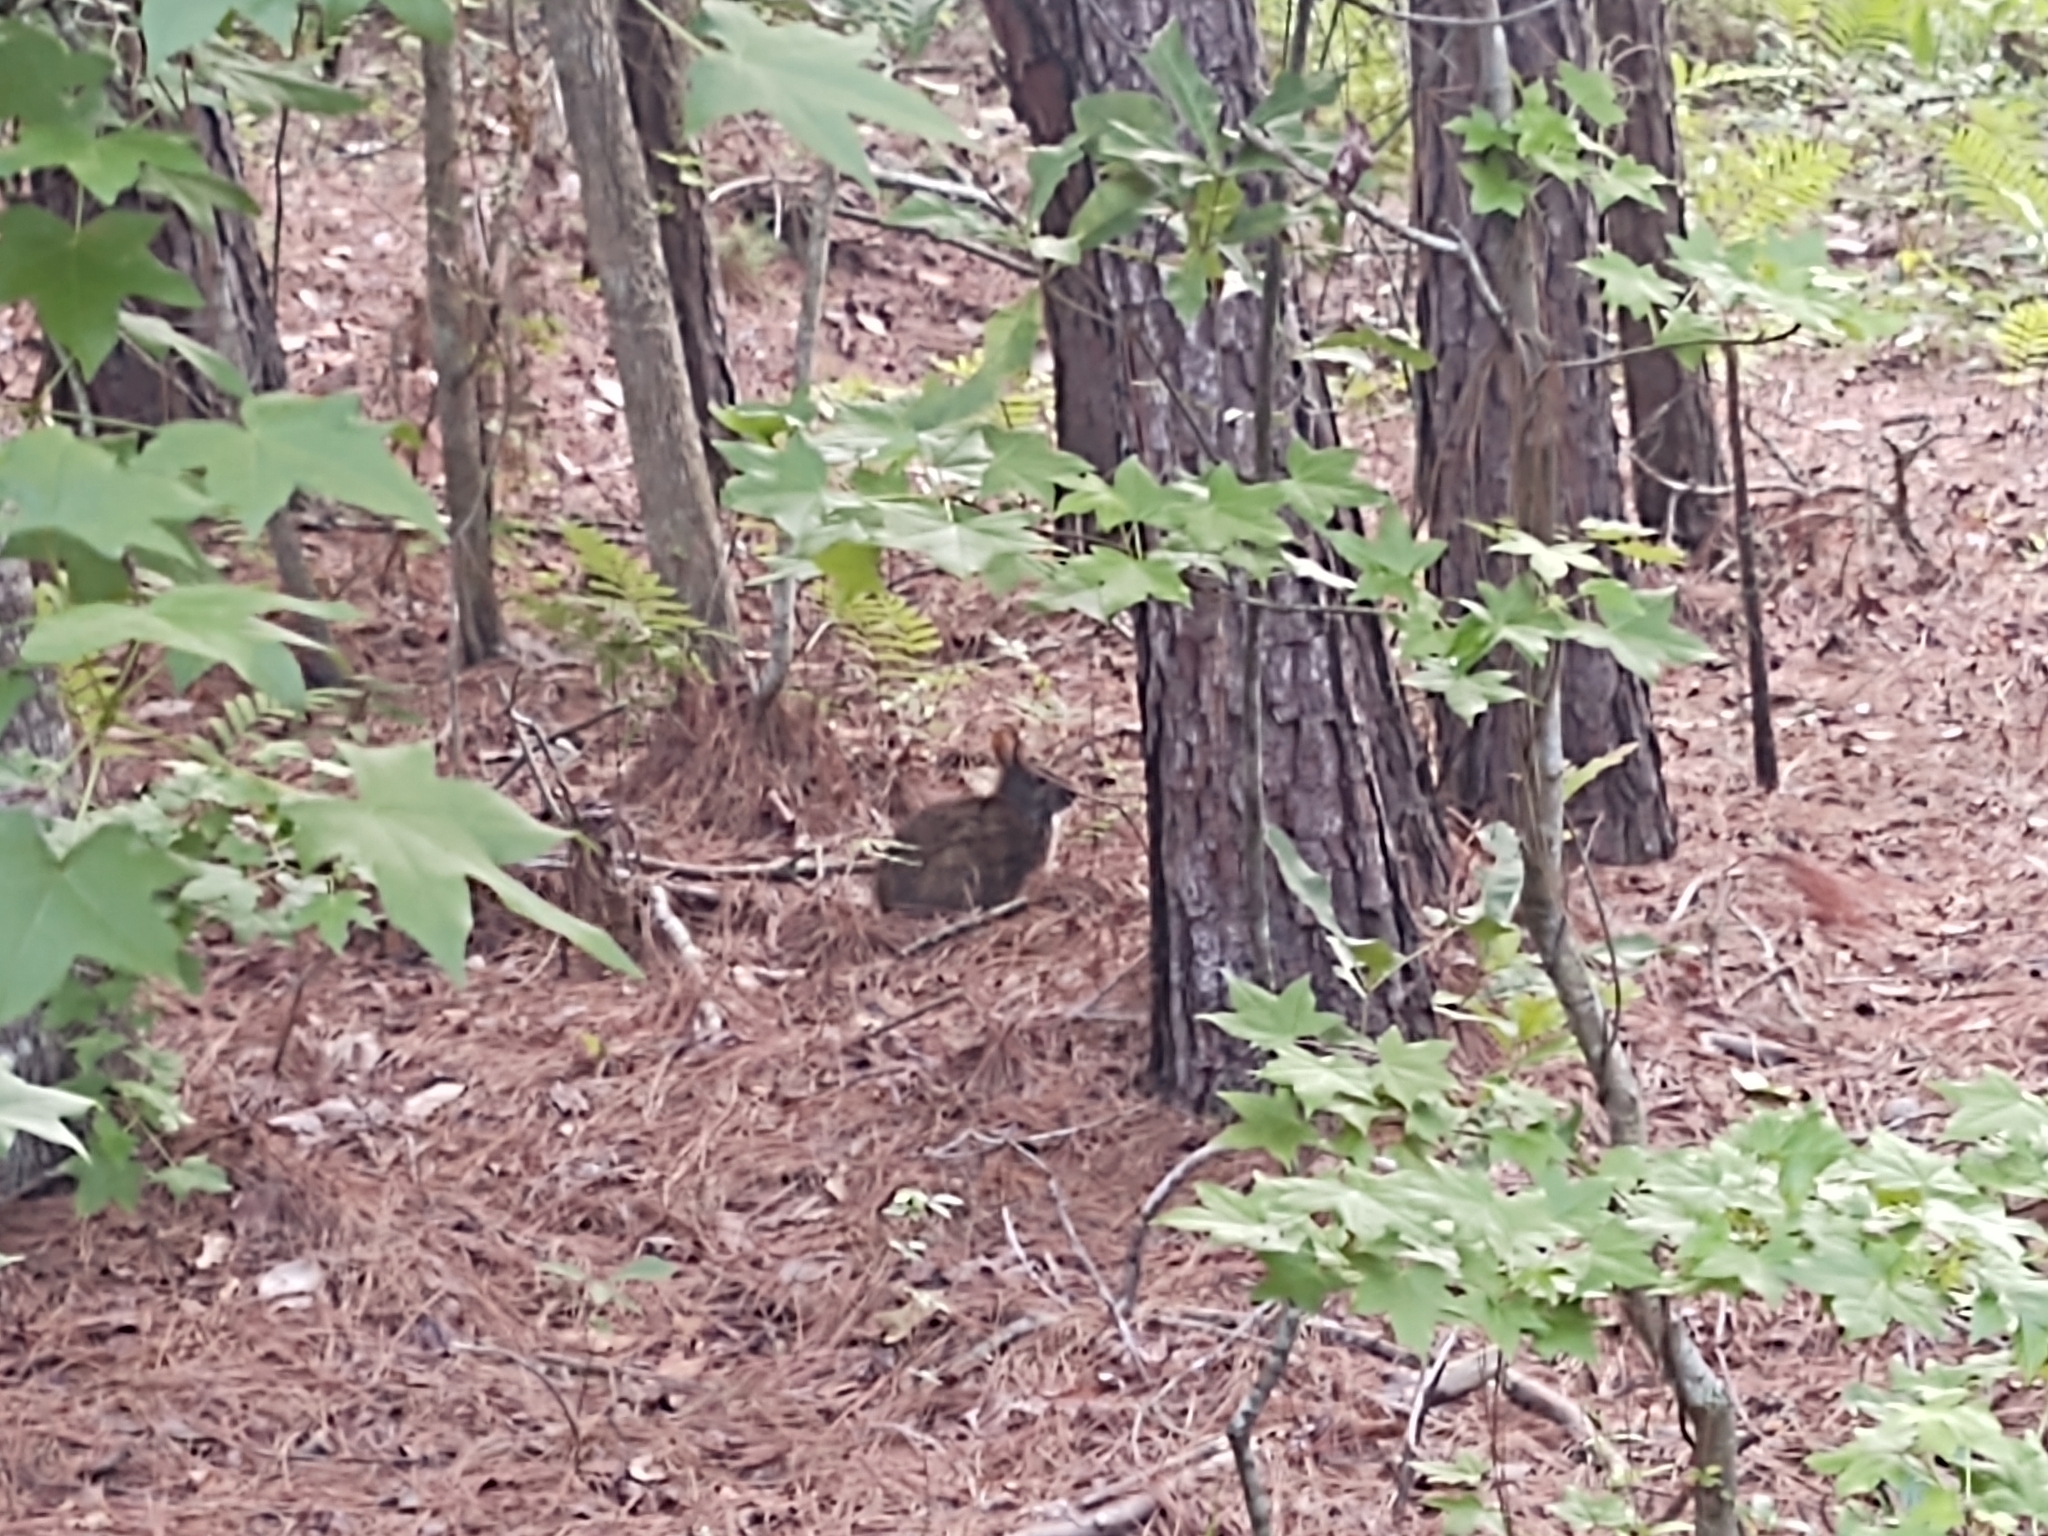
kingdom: Animalia
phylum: Chordata
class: Mammalia
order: Lagomorpha
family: Leporidae
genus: Sylvilagus
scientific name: Sylvilagus floridanus
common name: Eastern cottontail
